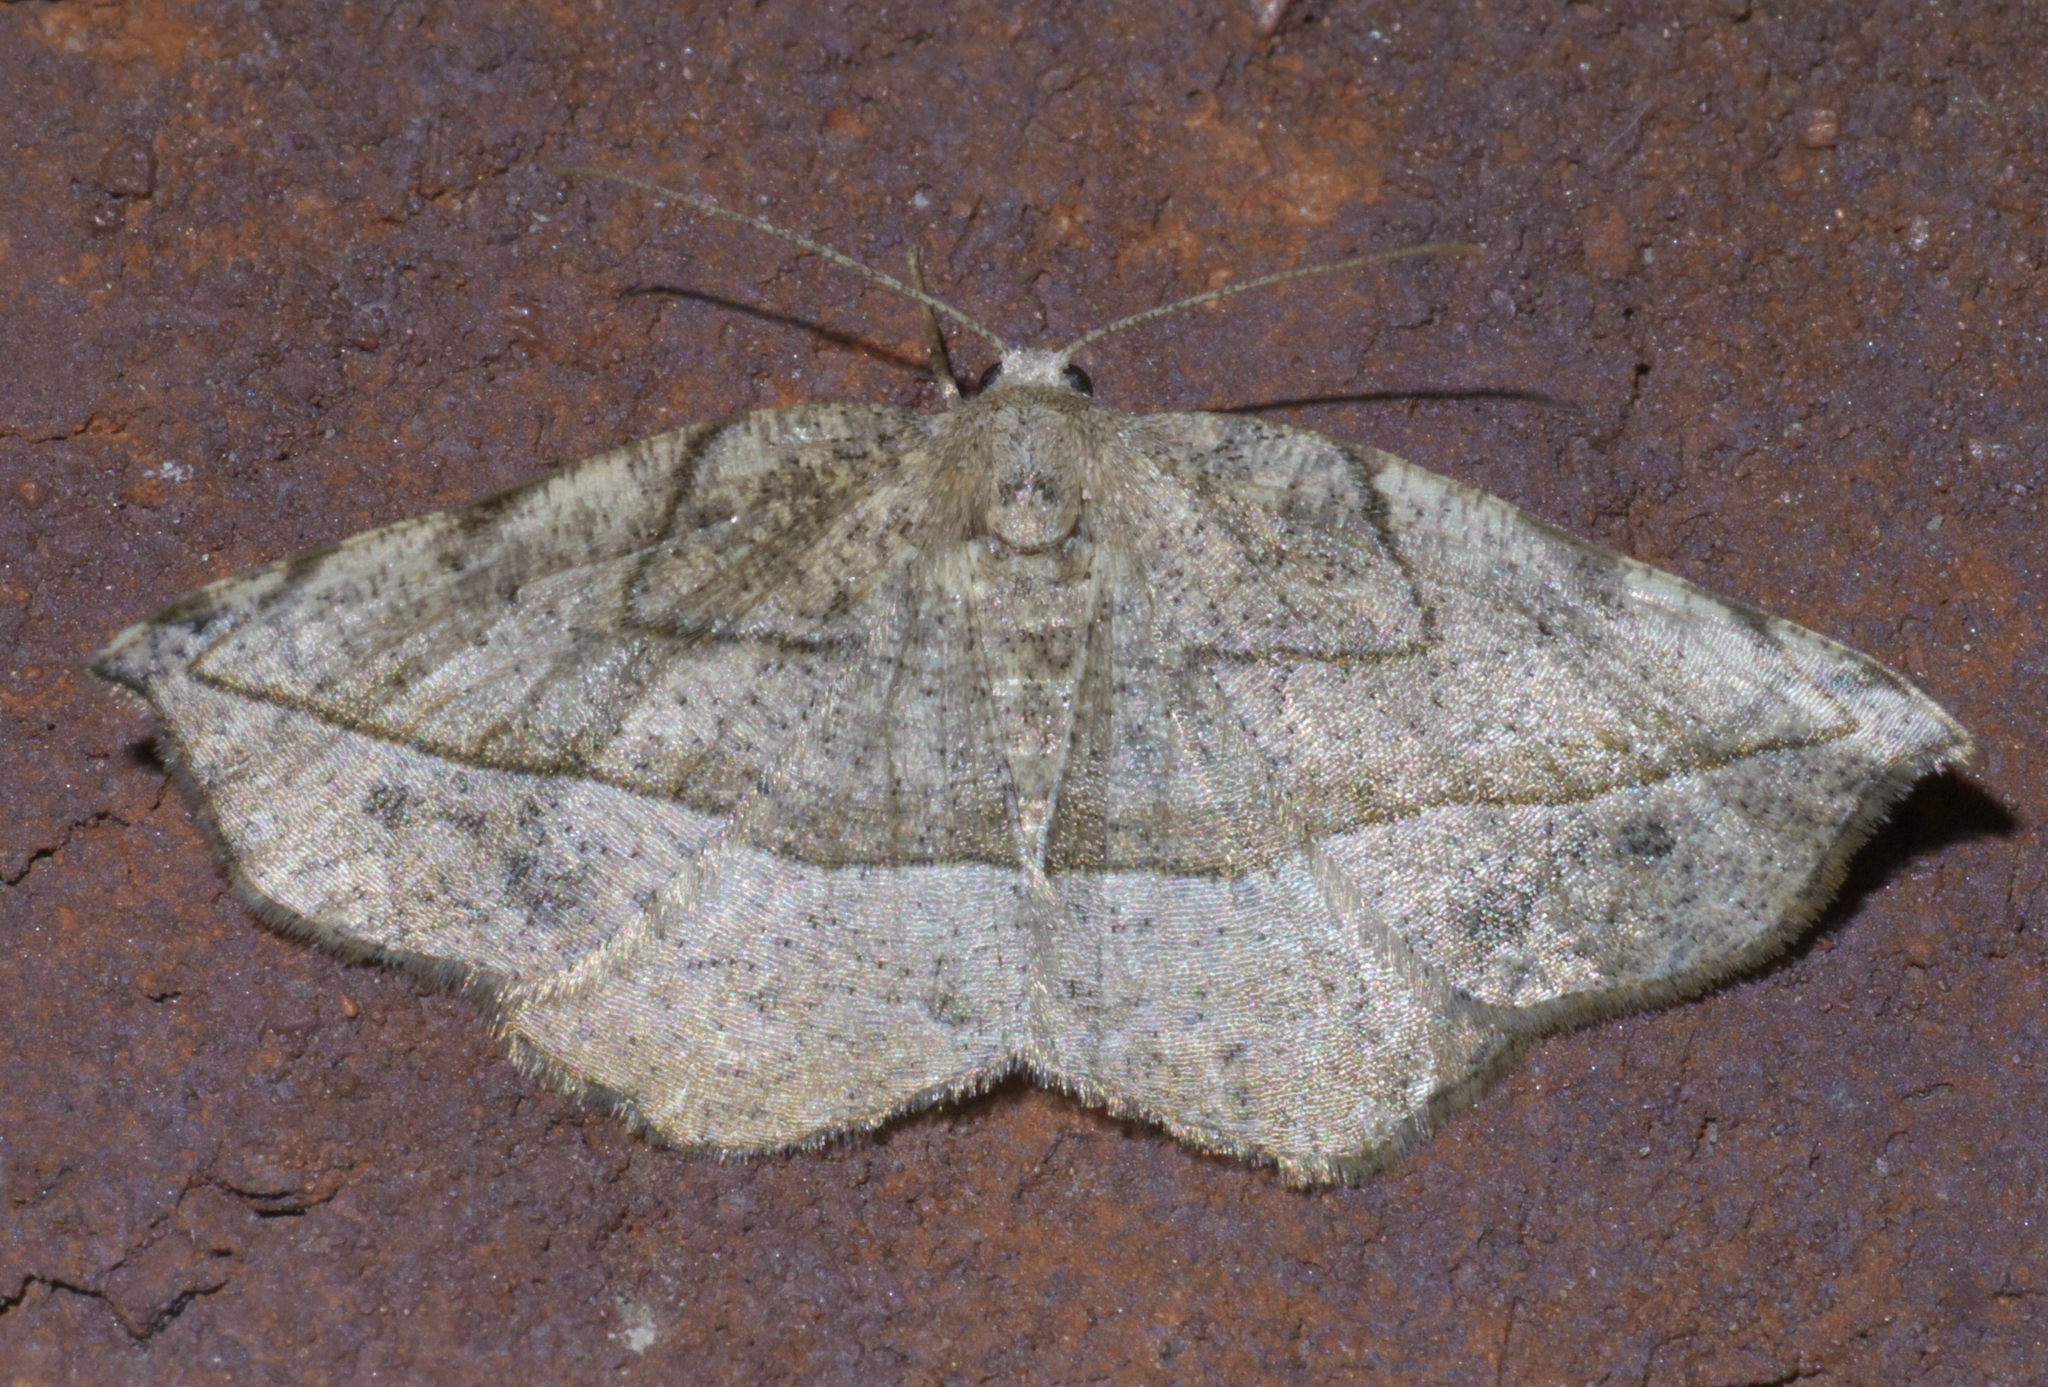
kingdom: Animalia
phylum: Arthropoda
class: Insecta
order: Lepidoptera
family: Geometridae
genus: Eusarca
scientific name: Eusarca packardaria
